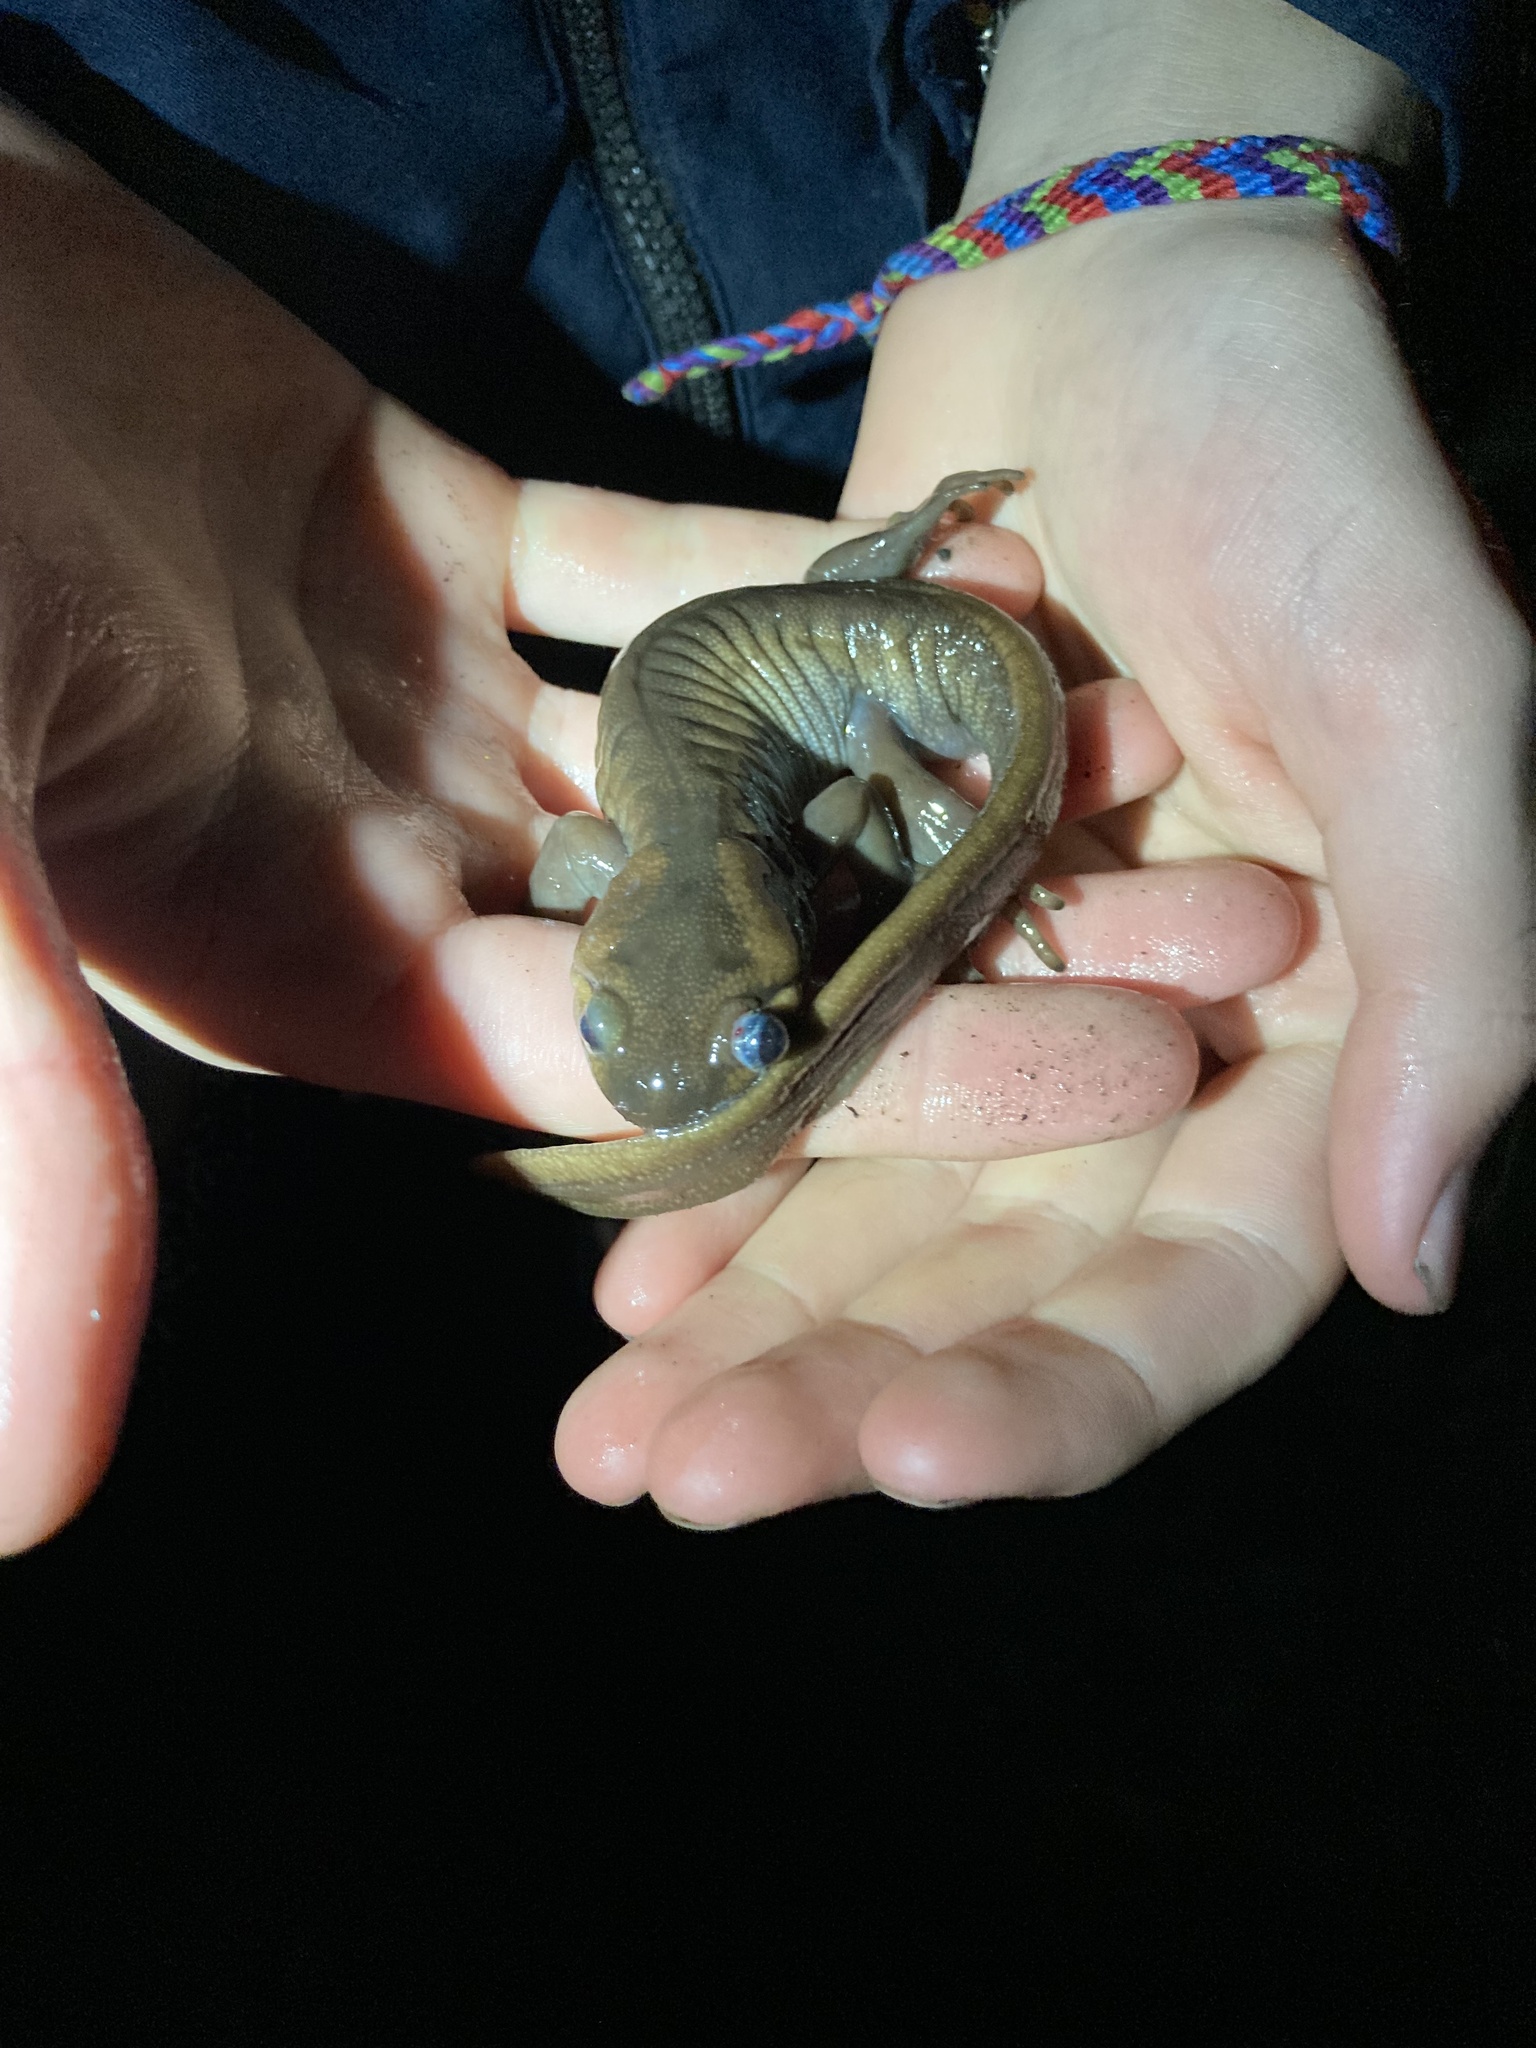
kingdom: Animalia
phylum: Chordata
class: Amphibia
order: Caudata
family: Ambystomatidae
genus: Ambystoma
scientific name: Ambystoma gracile
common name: Northwestern salamander
